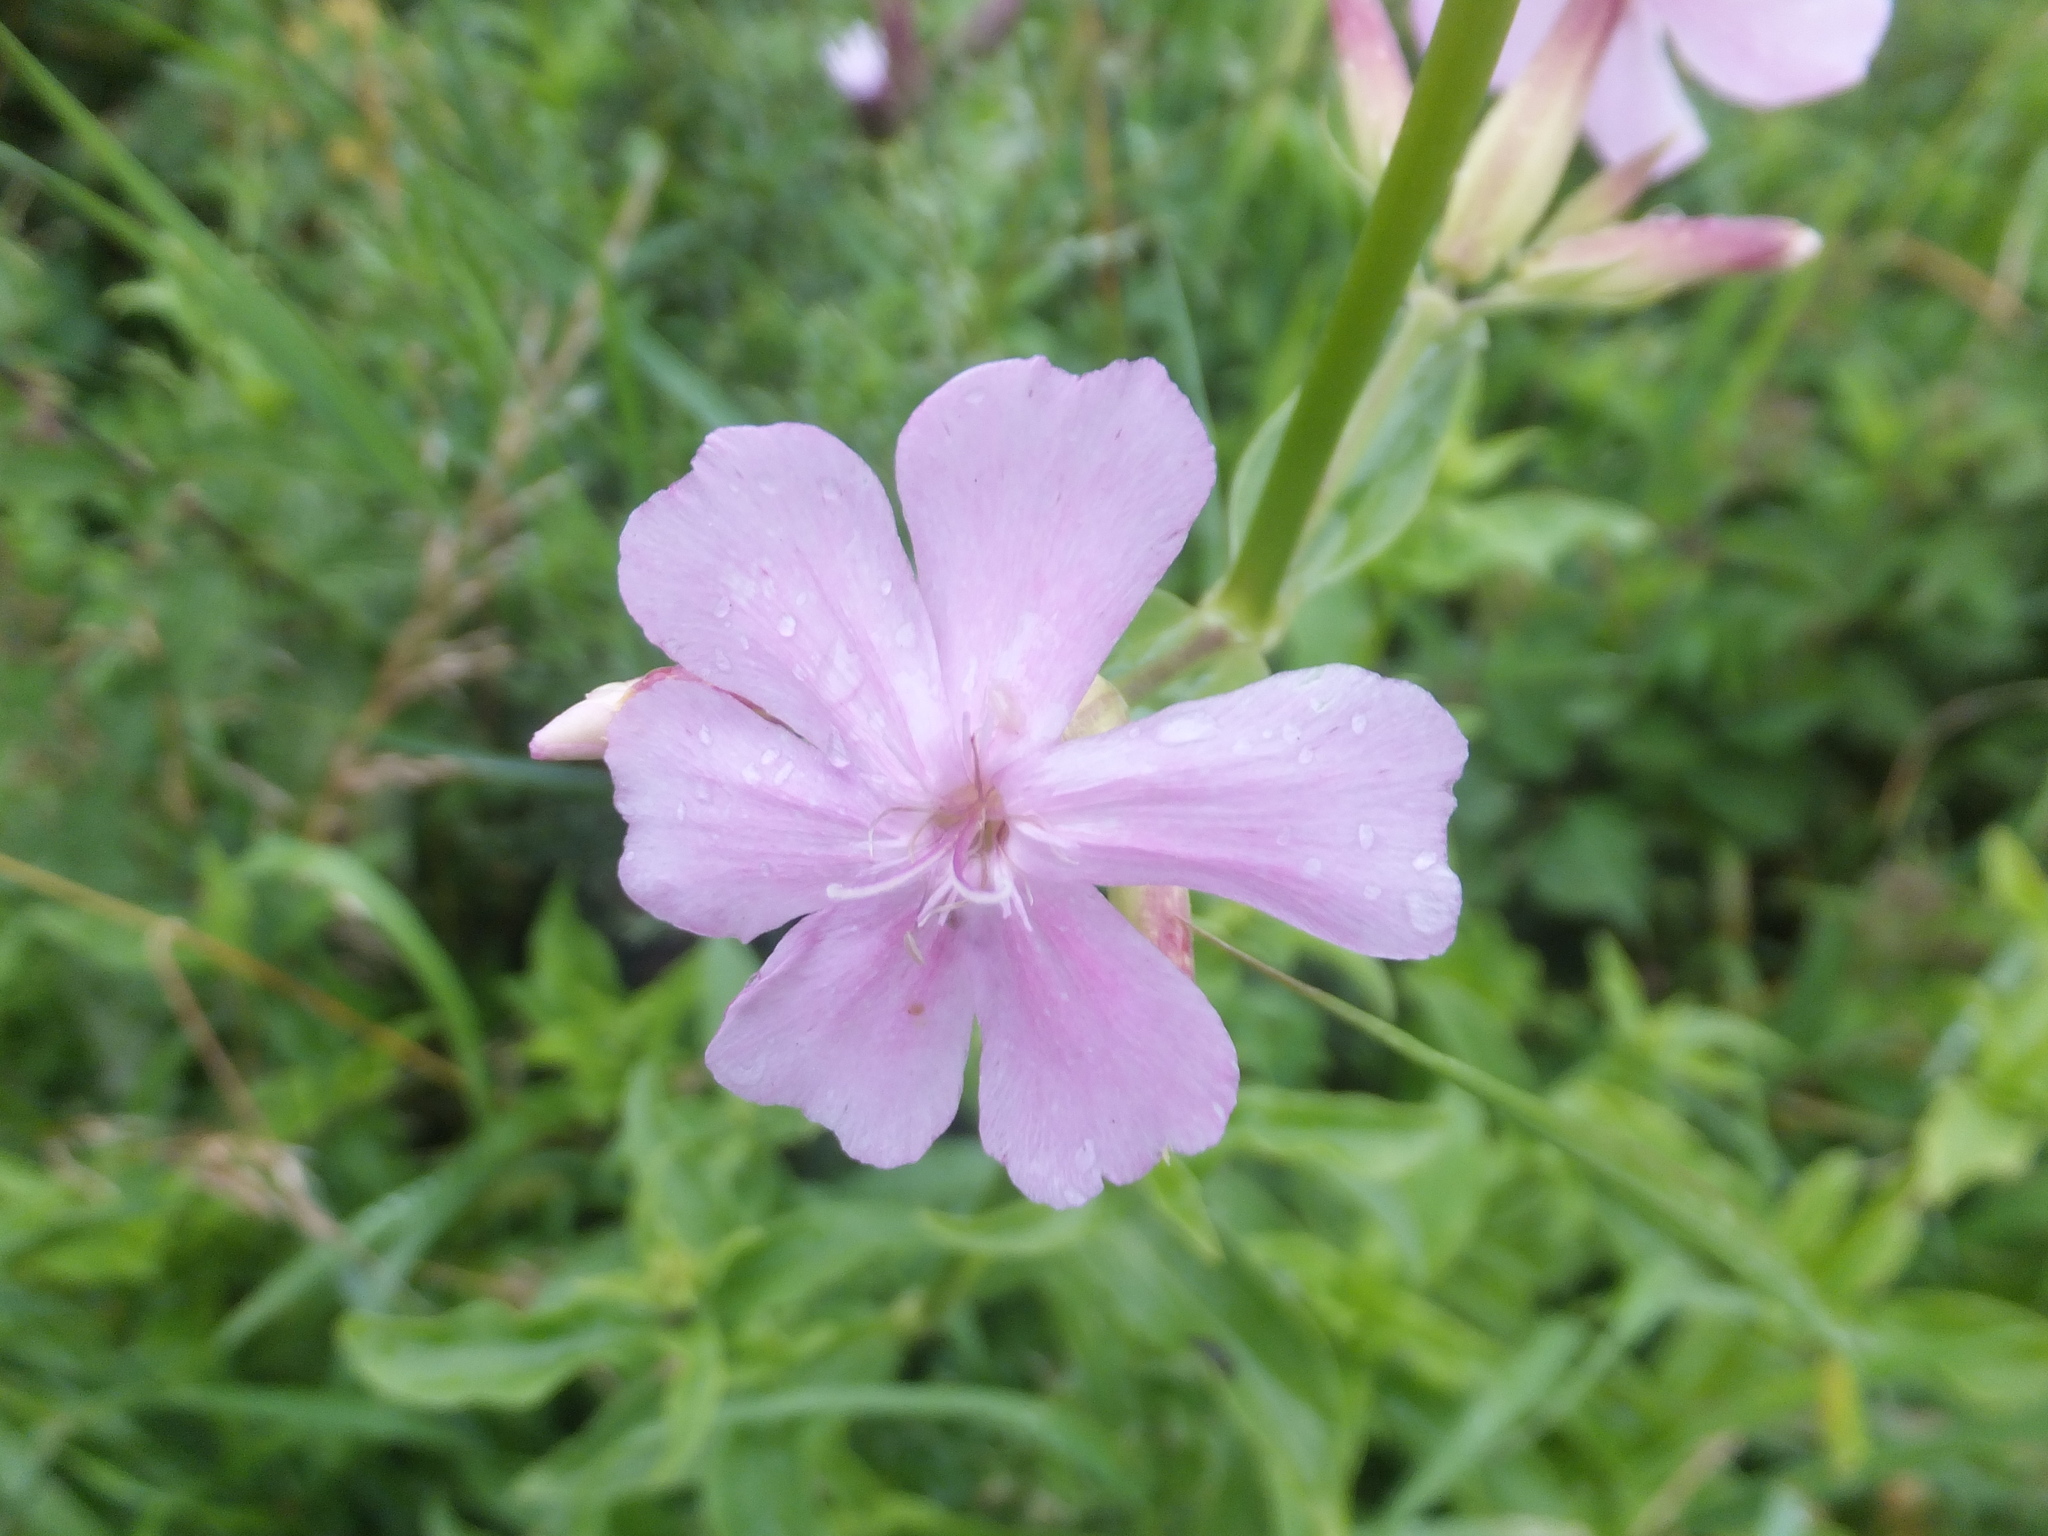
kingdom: Plantae
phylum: Tracheophyta
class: Magnoliopsida
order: Caryophyllales
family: Caryophyllaceae
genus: Saponaria
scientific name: Saponaria officinalis
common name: Soapwort
